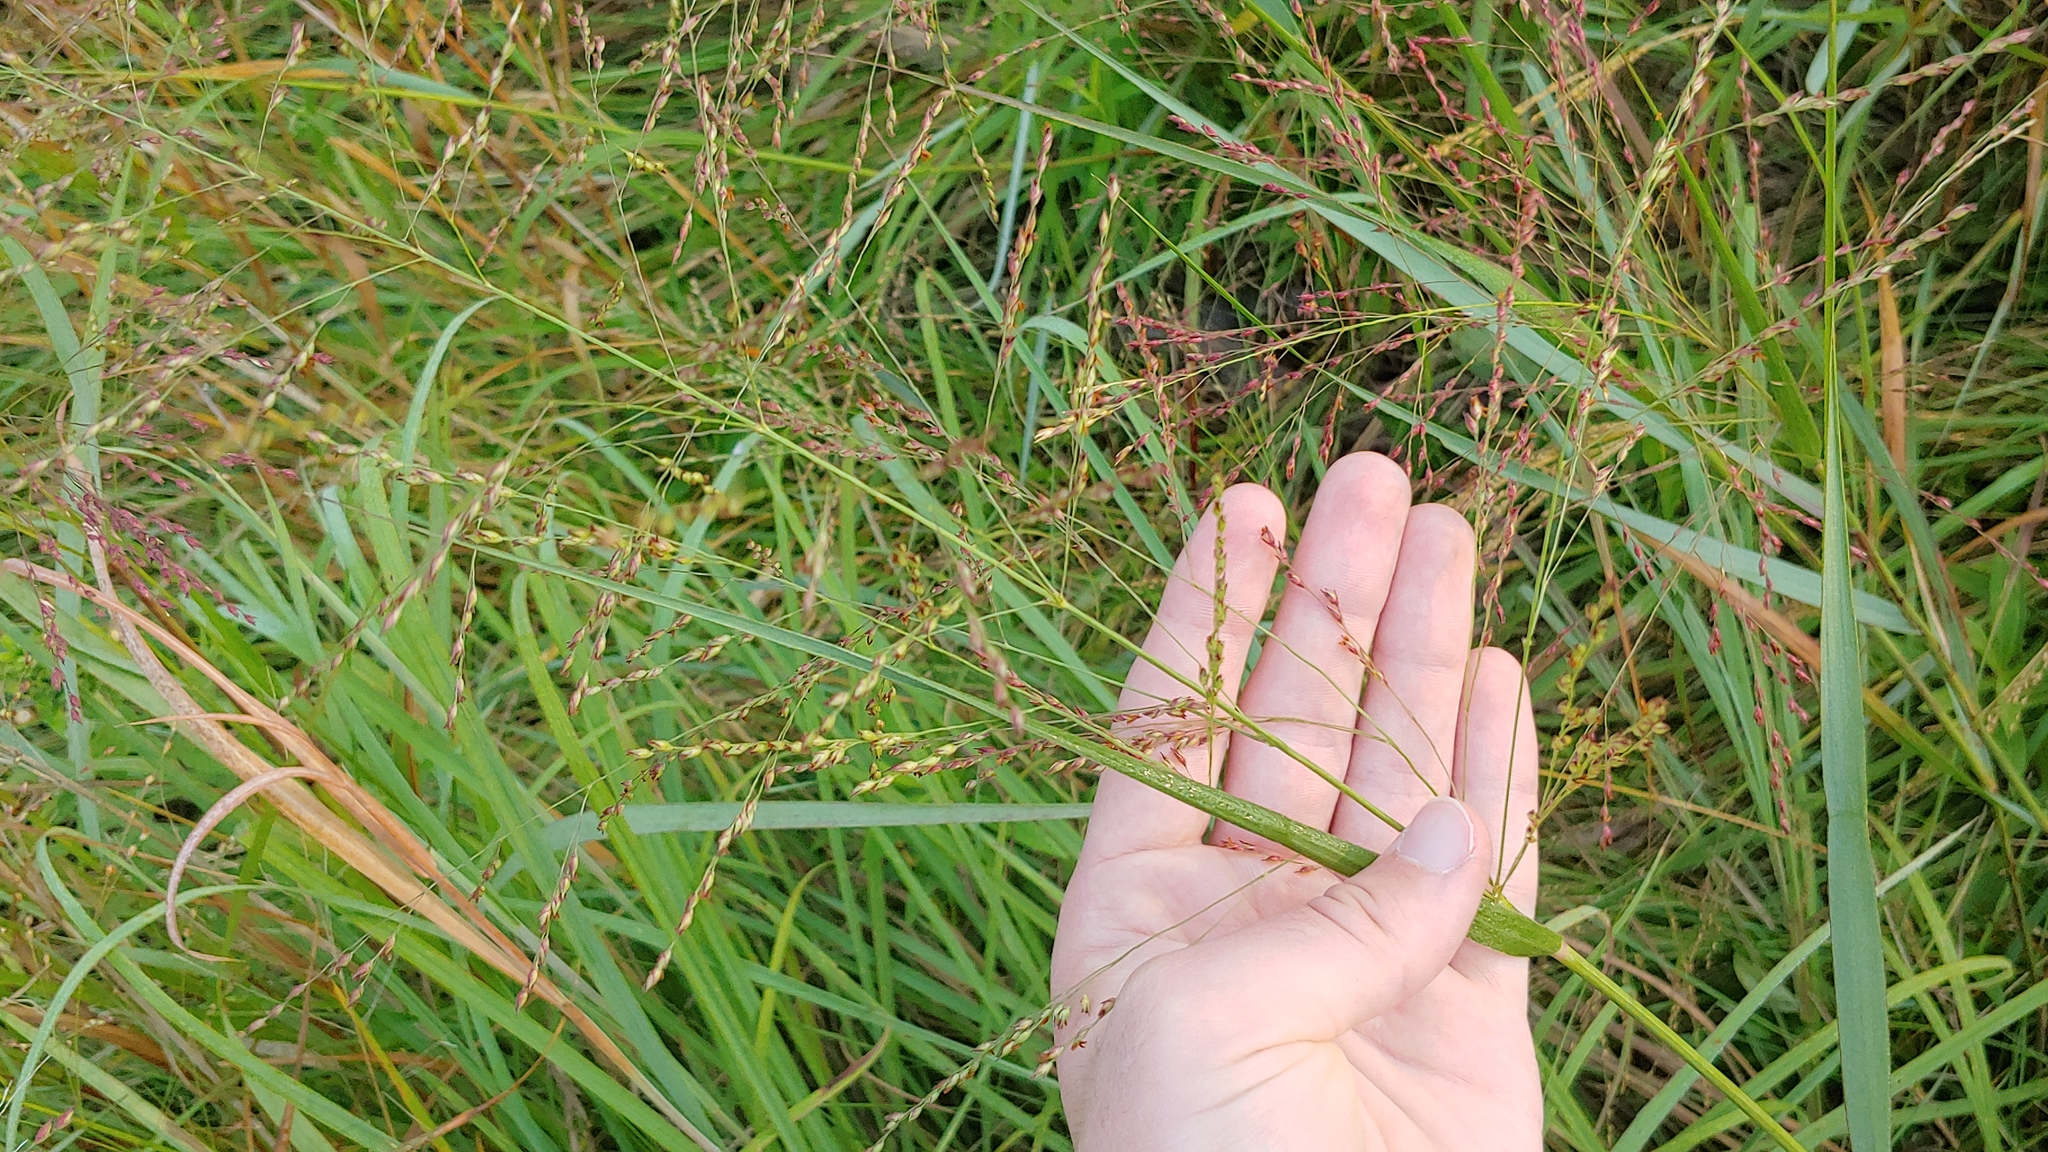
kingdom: Plantae
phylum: Tracheophyta
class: Liliopsida
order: Poales
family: Poaceae
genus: Panicum
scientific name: Panicum virgatum
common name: Switchgrass
